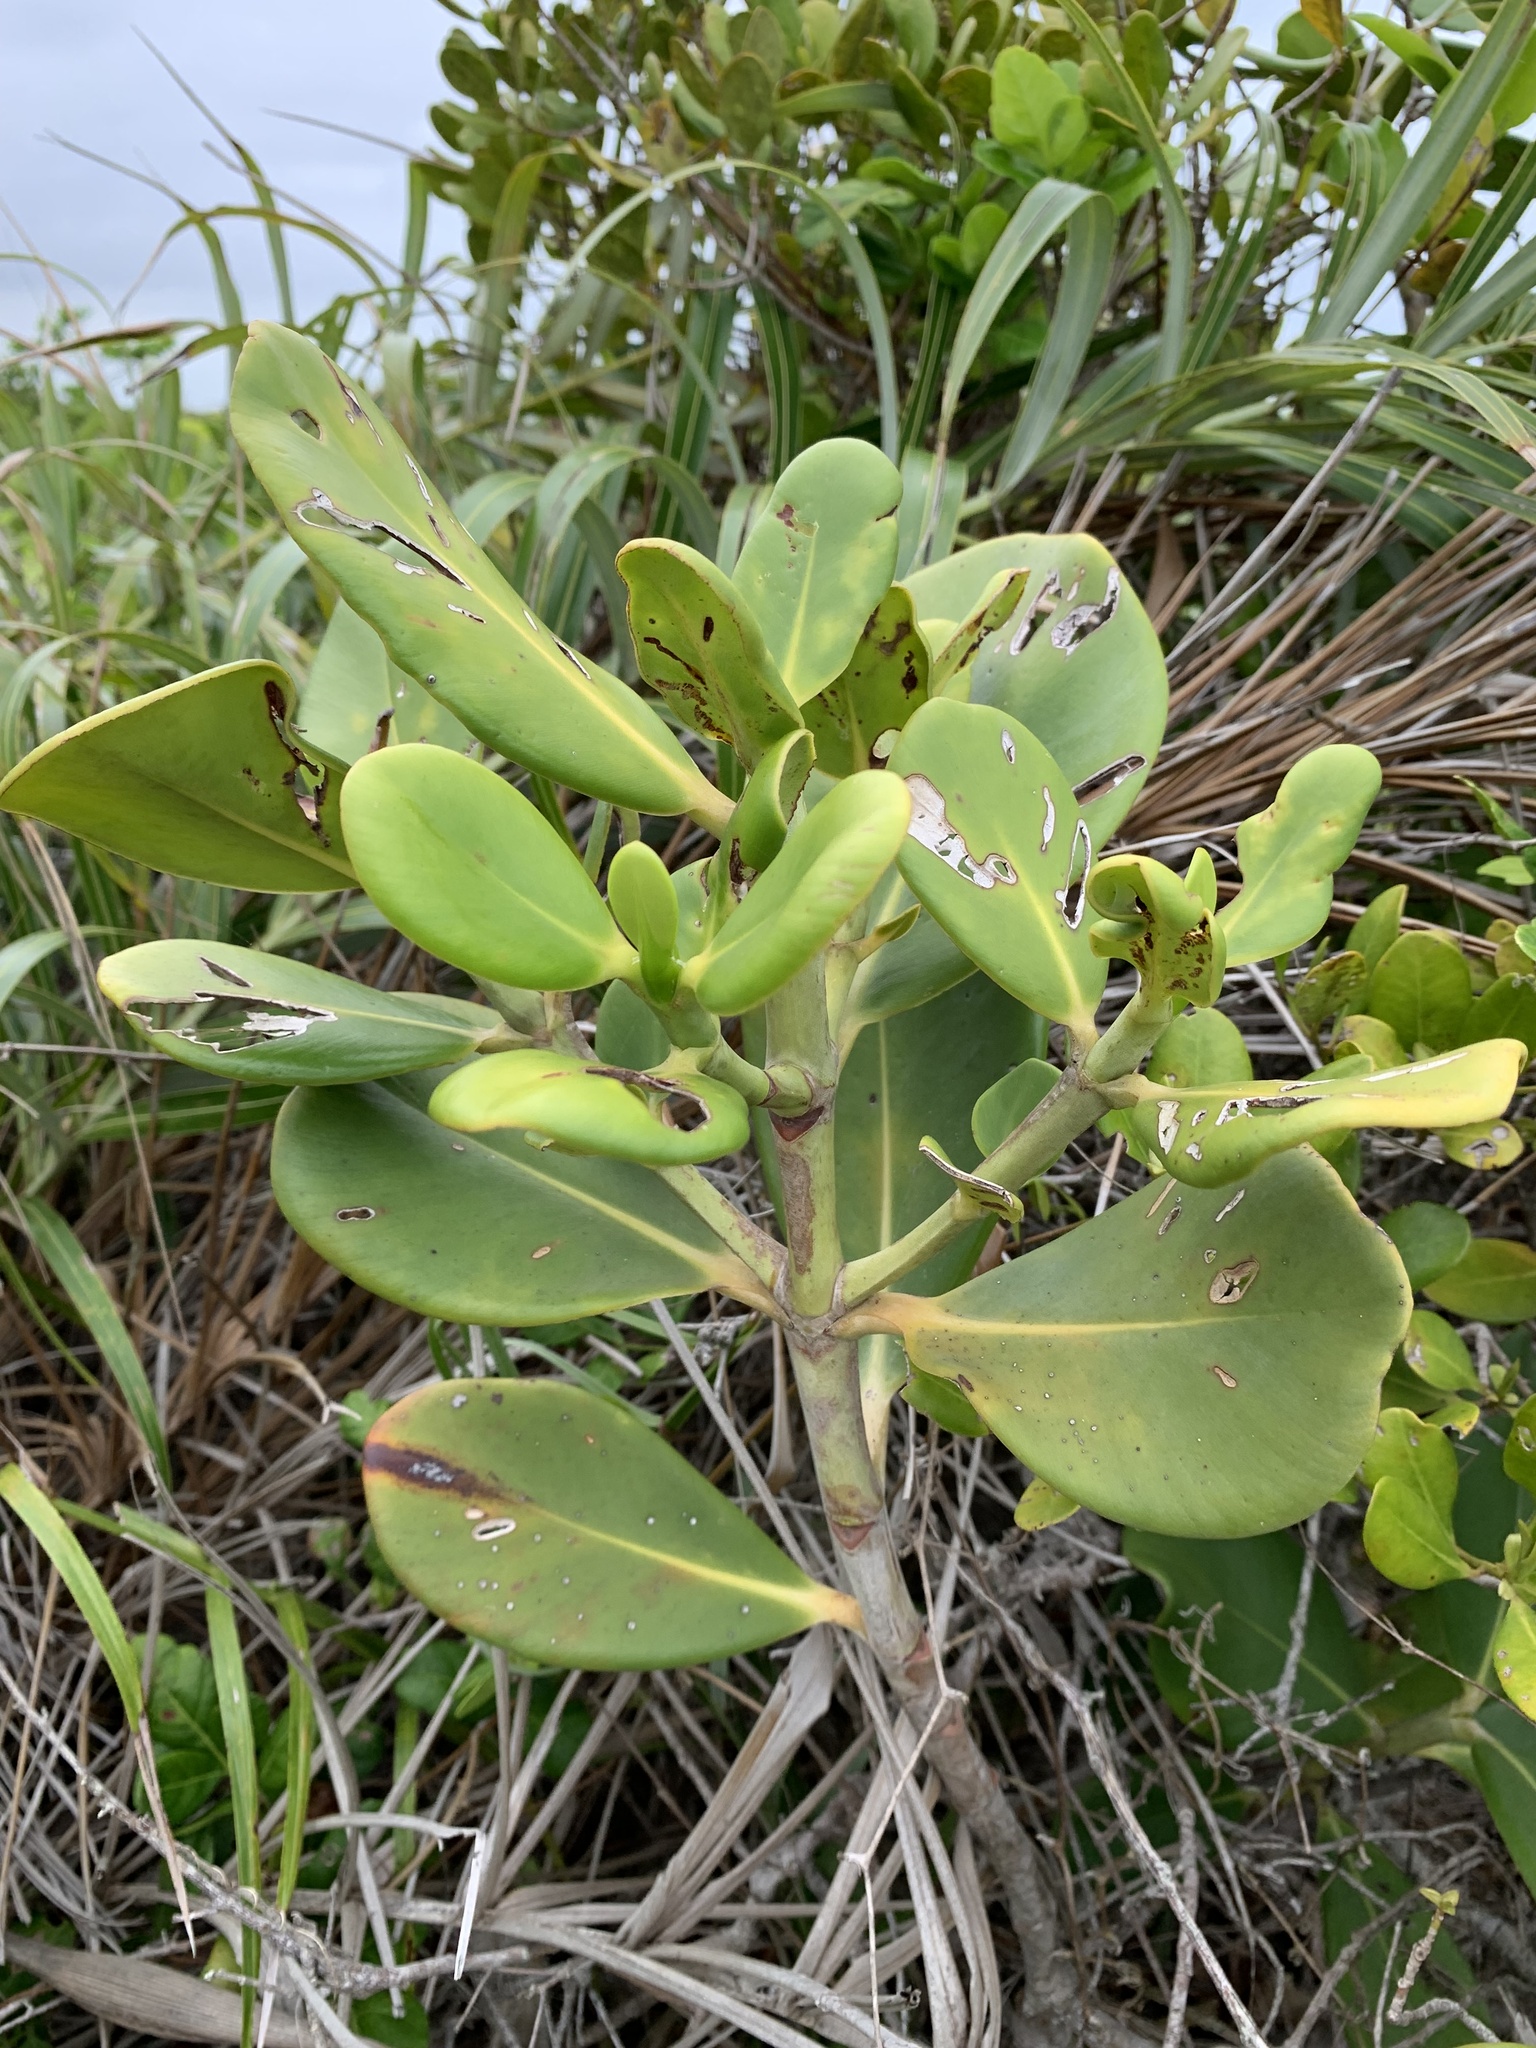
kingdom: Plantae
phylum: Tracheophyta
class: Magnoliopsida
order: Malpighiales
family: Clusiaceae
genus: Clusia
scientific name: Clusia hilariana
